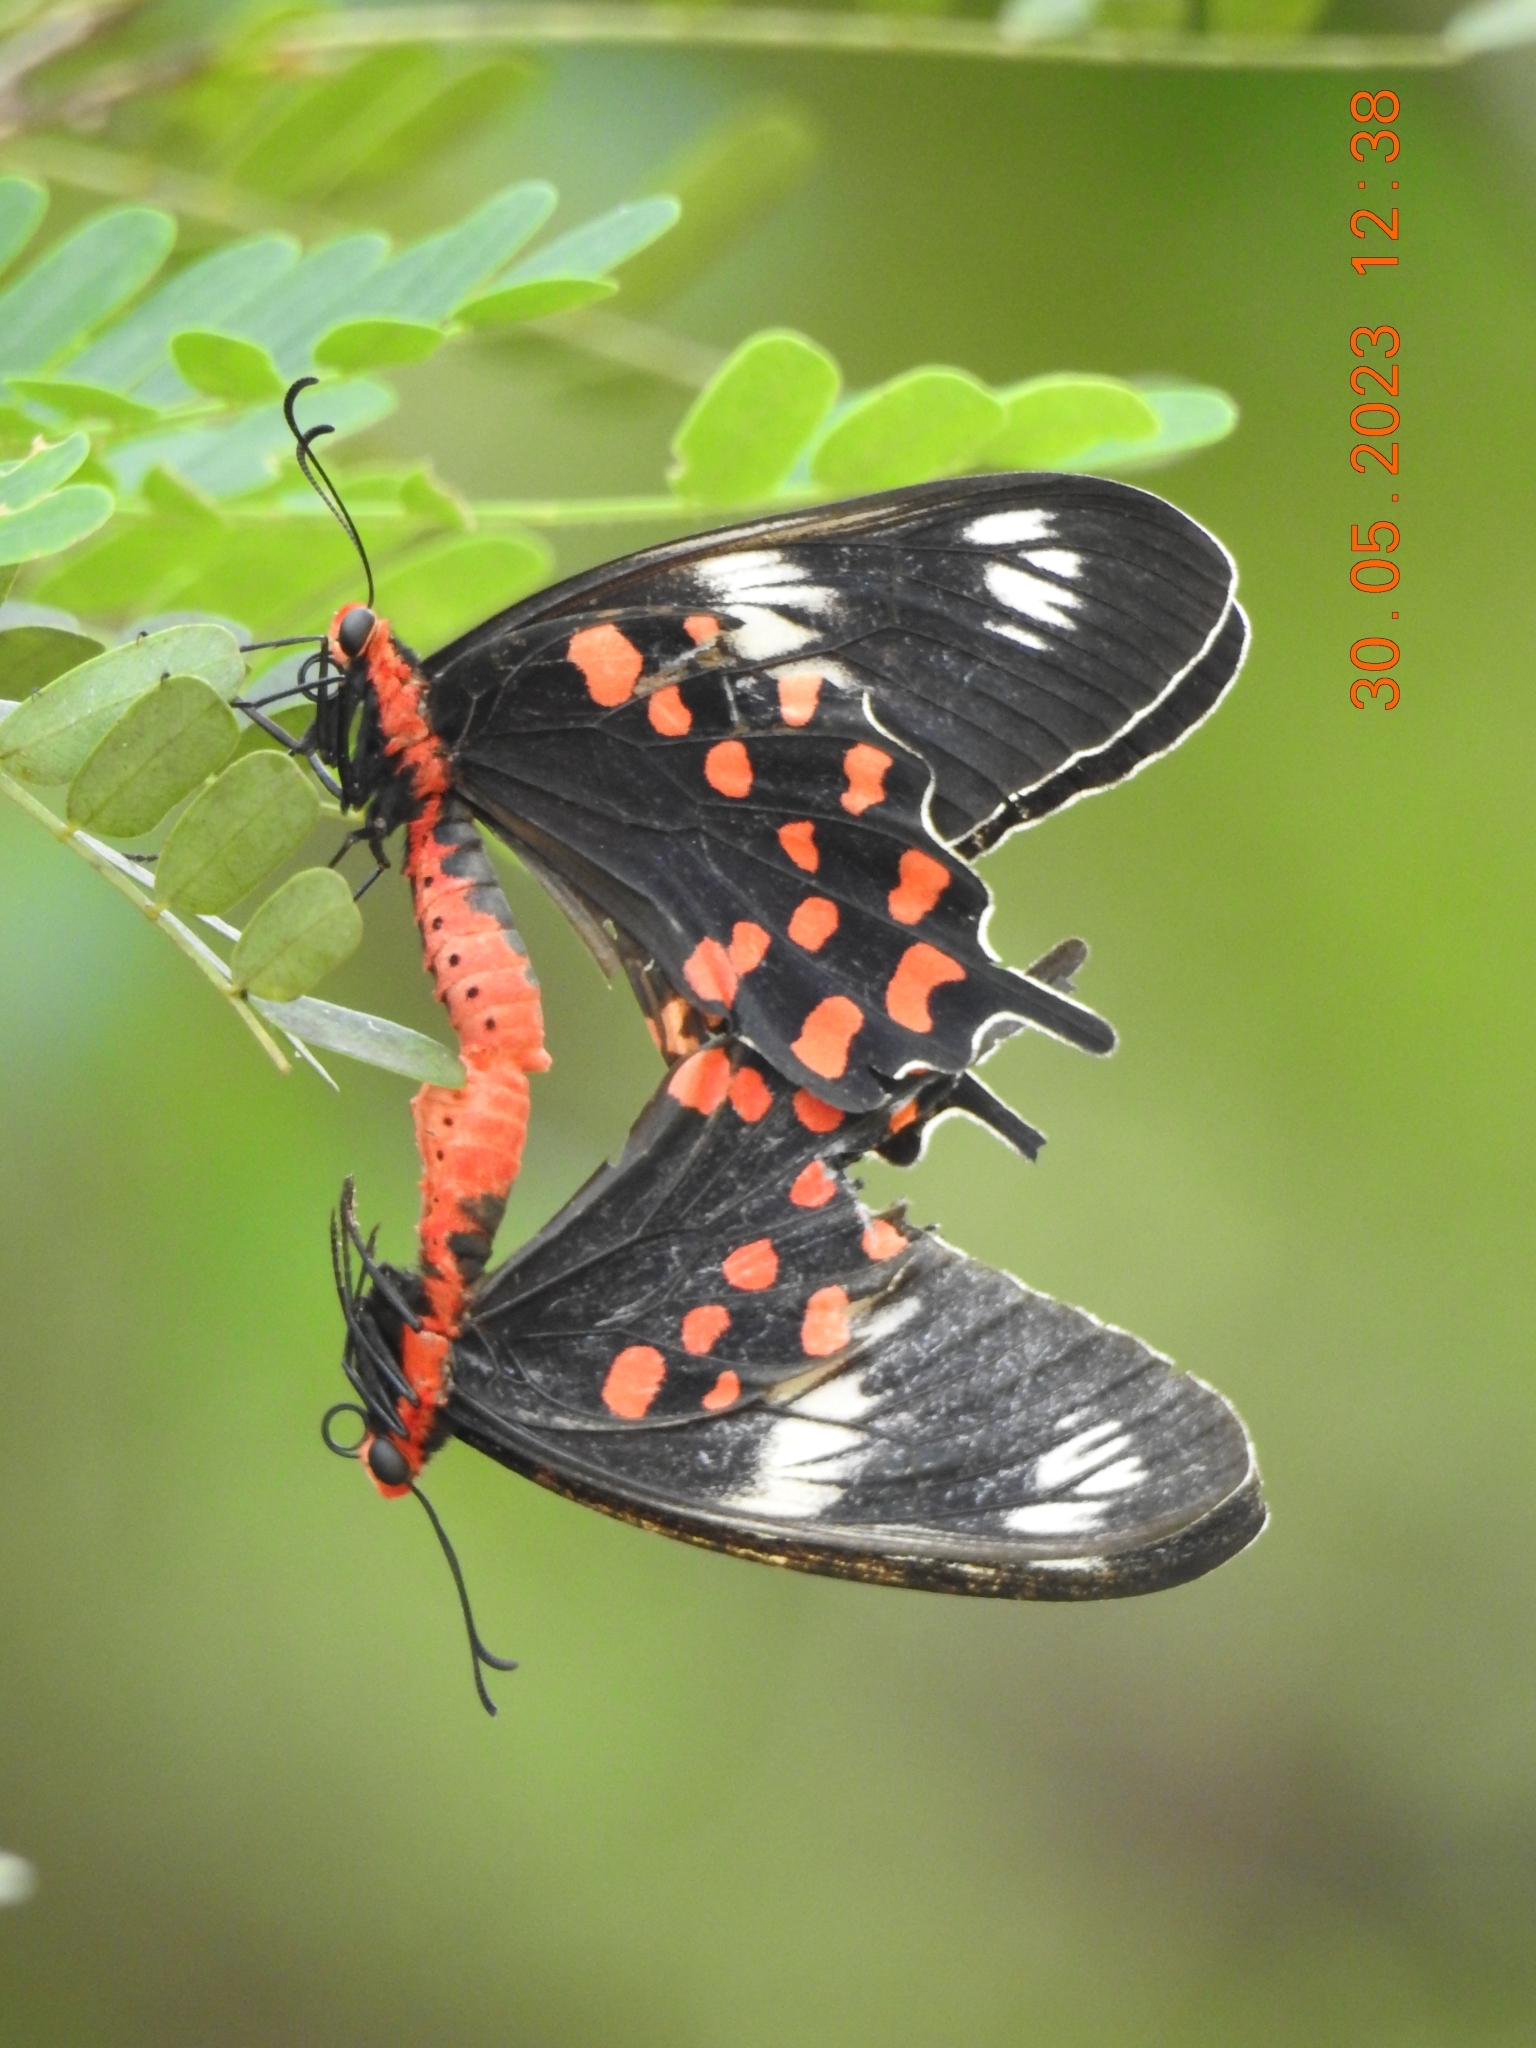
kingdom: Animalia
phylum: Arthropoda
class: Insecta
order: Lepidoptera
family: Papilionidae
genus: Pachliopta
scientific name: Pachliopta hector
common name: Crimson rose
